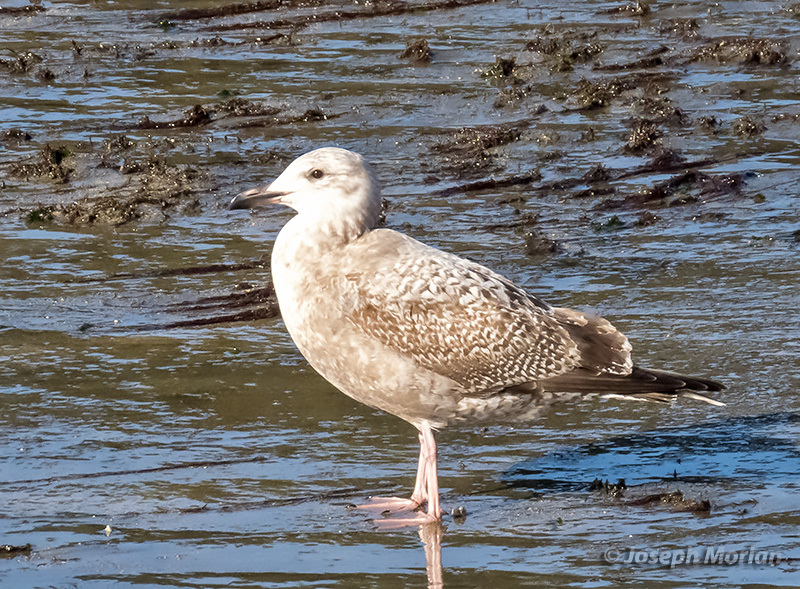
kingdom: Animalia
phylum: Chordata
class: Aves
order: Charadriiformes
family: Laridae
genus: Larus
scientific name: Larus argentatus
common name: Herring gull
